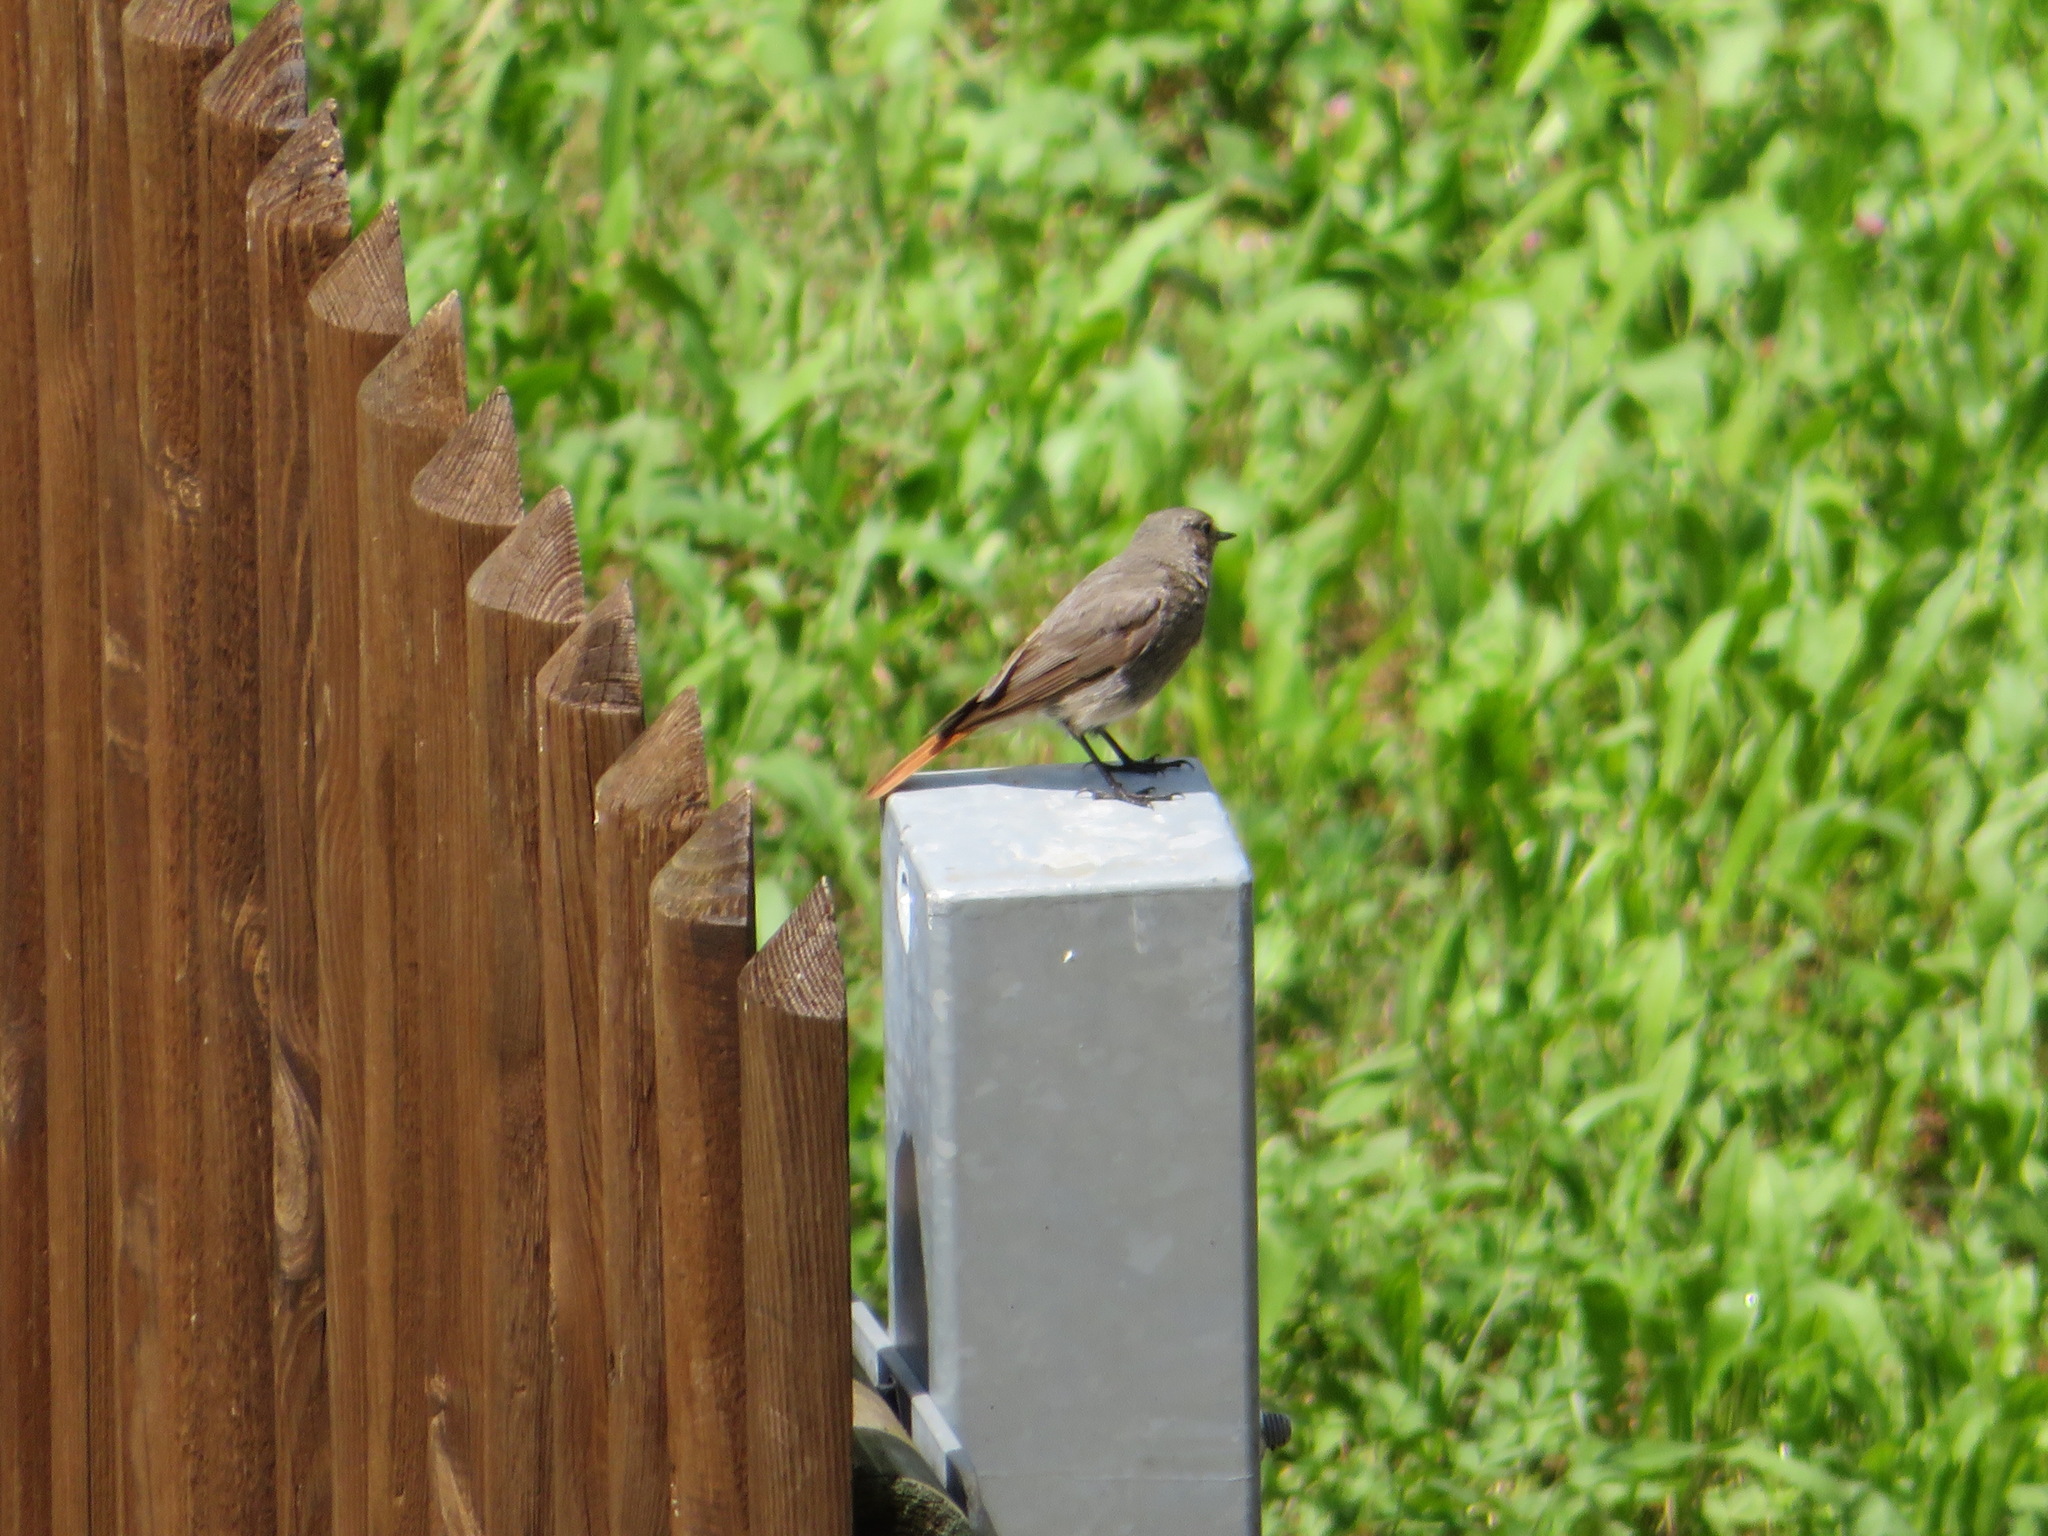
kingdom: Animalia
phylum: Chordata
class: Aves
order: Passeriformes
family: Muscicapidae
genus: Phoenicurus
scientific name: Phoenicurus ochruros
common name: Black redstart
